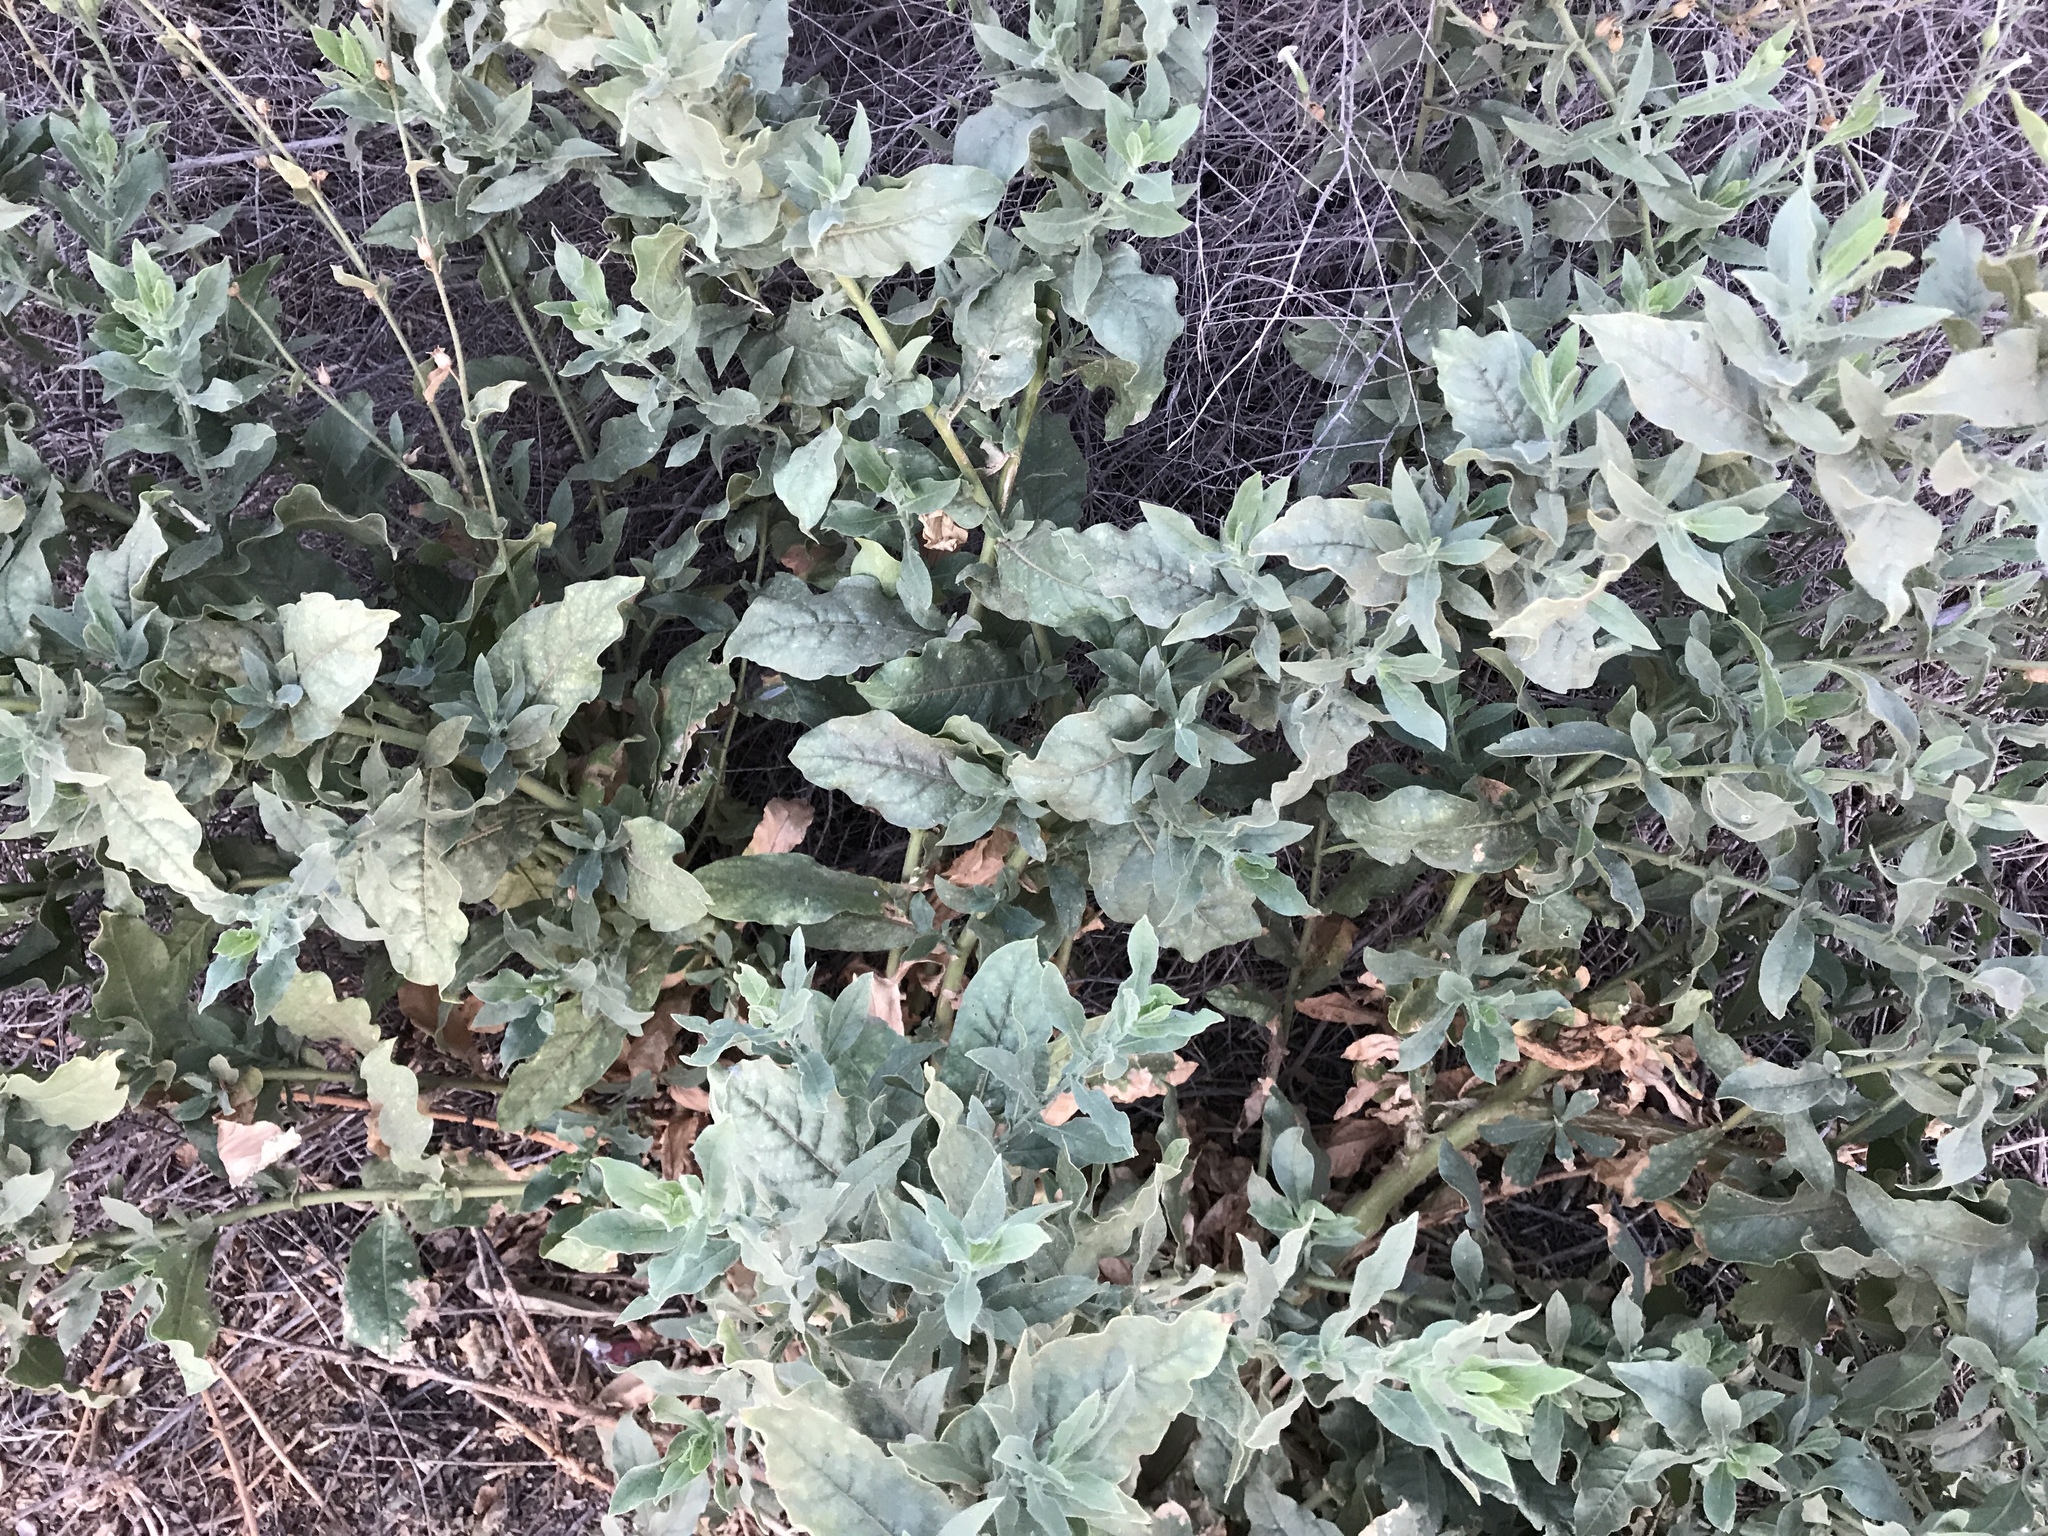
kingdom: Plantae
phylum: Tracheophyta
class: Magnoliopsida
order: Solanales
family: Solanaceae
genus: Nicotiana
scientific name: Nicotiana obtusifolia
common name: Desert tobacco
